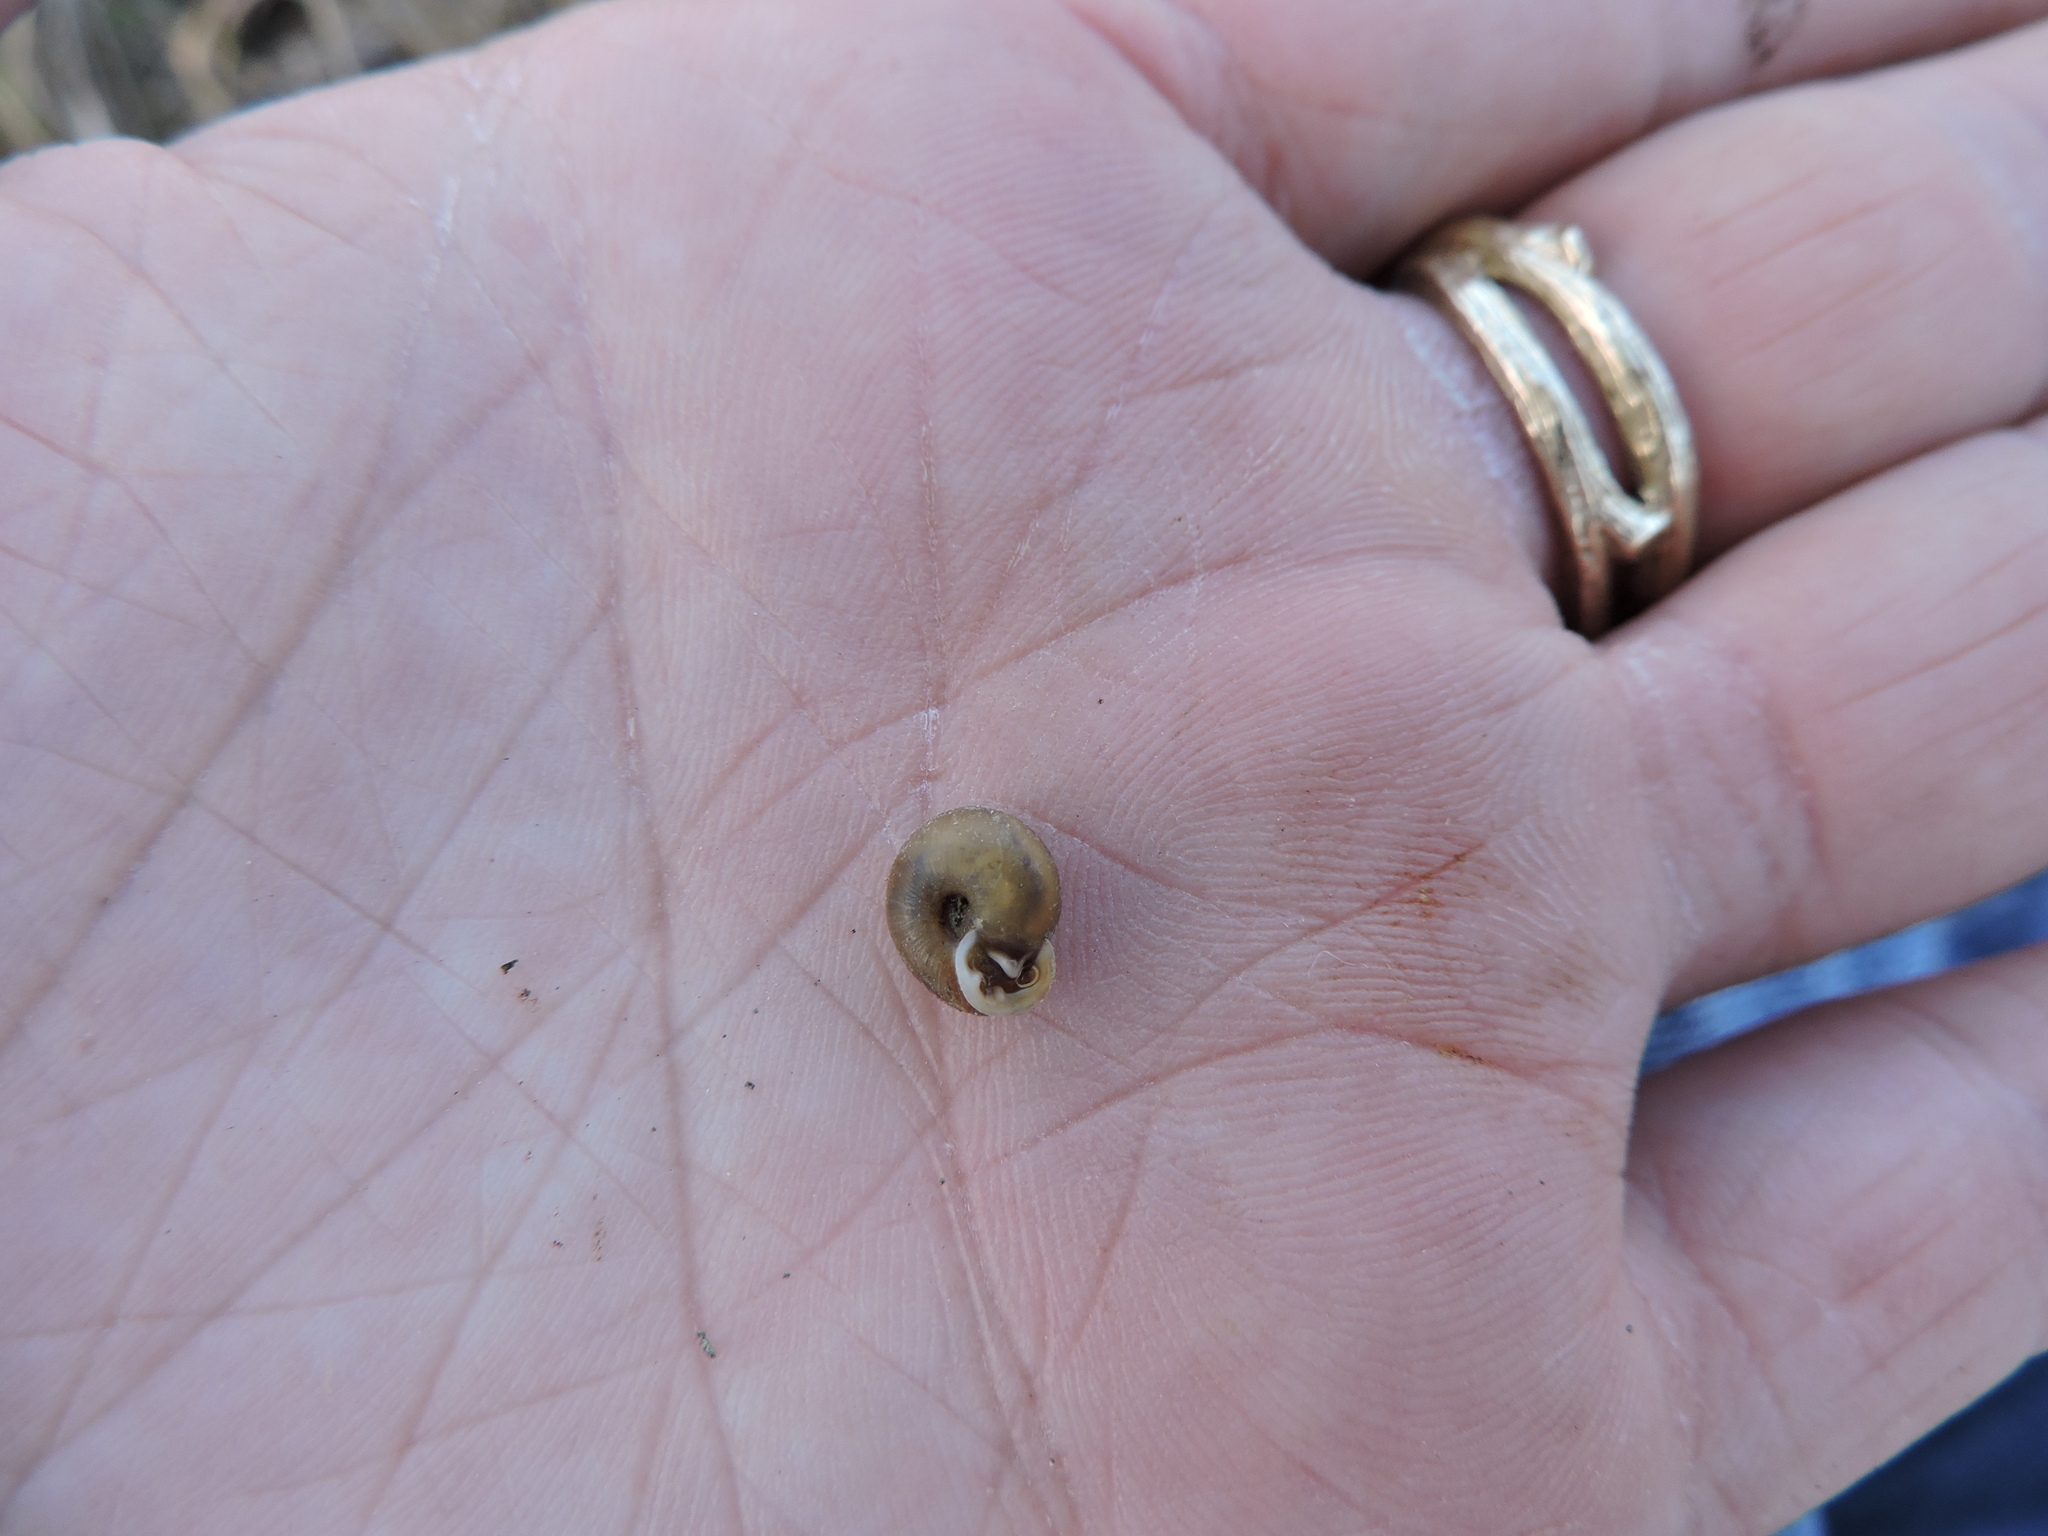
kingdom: Animalia
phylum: Mollusca
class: Gastropoda
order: Stylommatophora
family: Polygyridae
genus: Linisa
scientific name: Linisa texasiana
